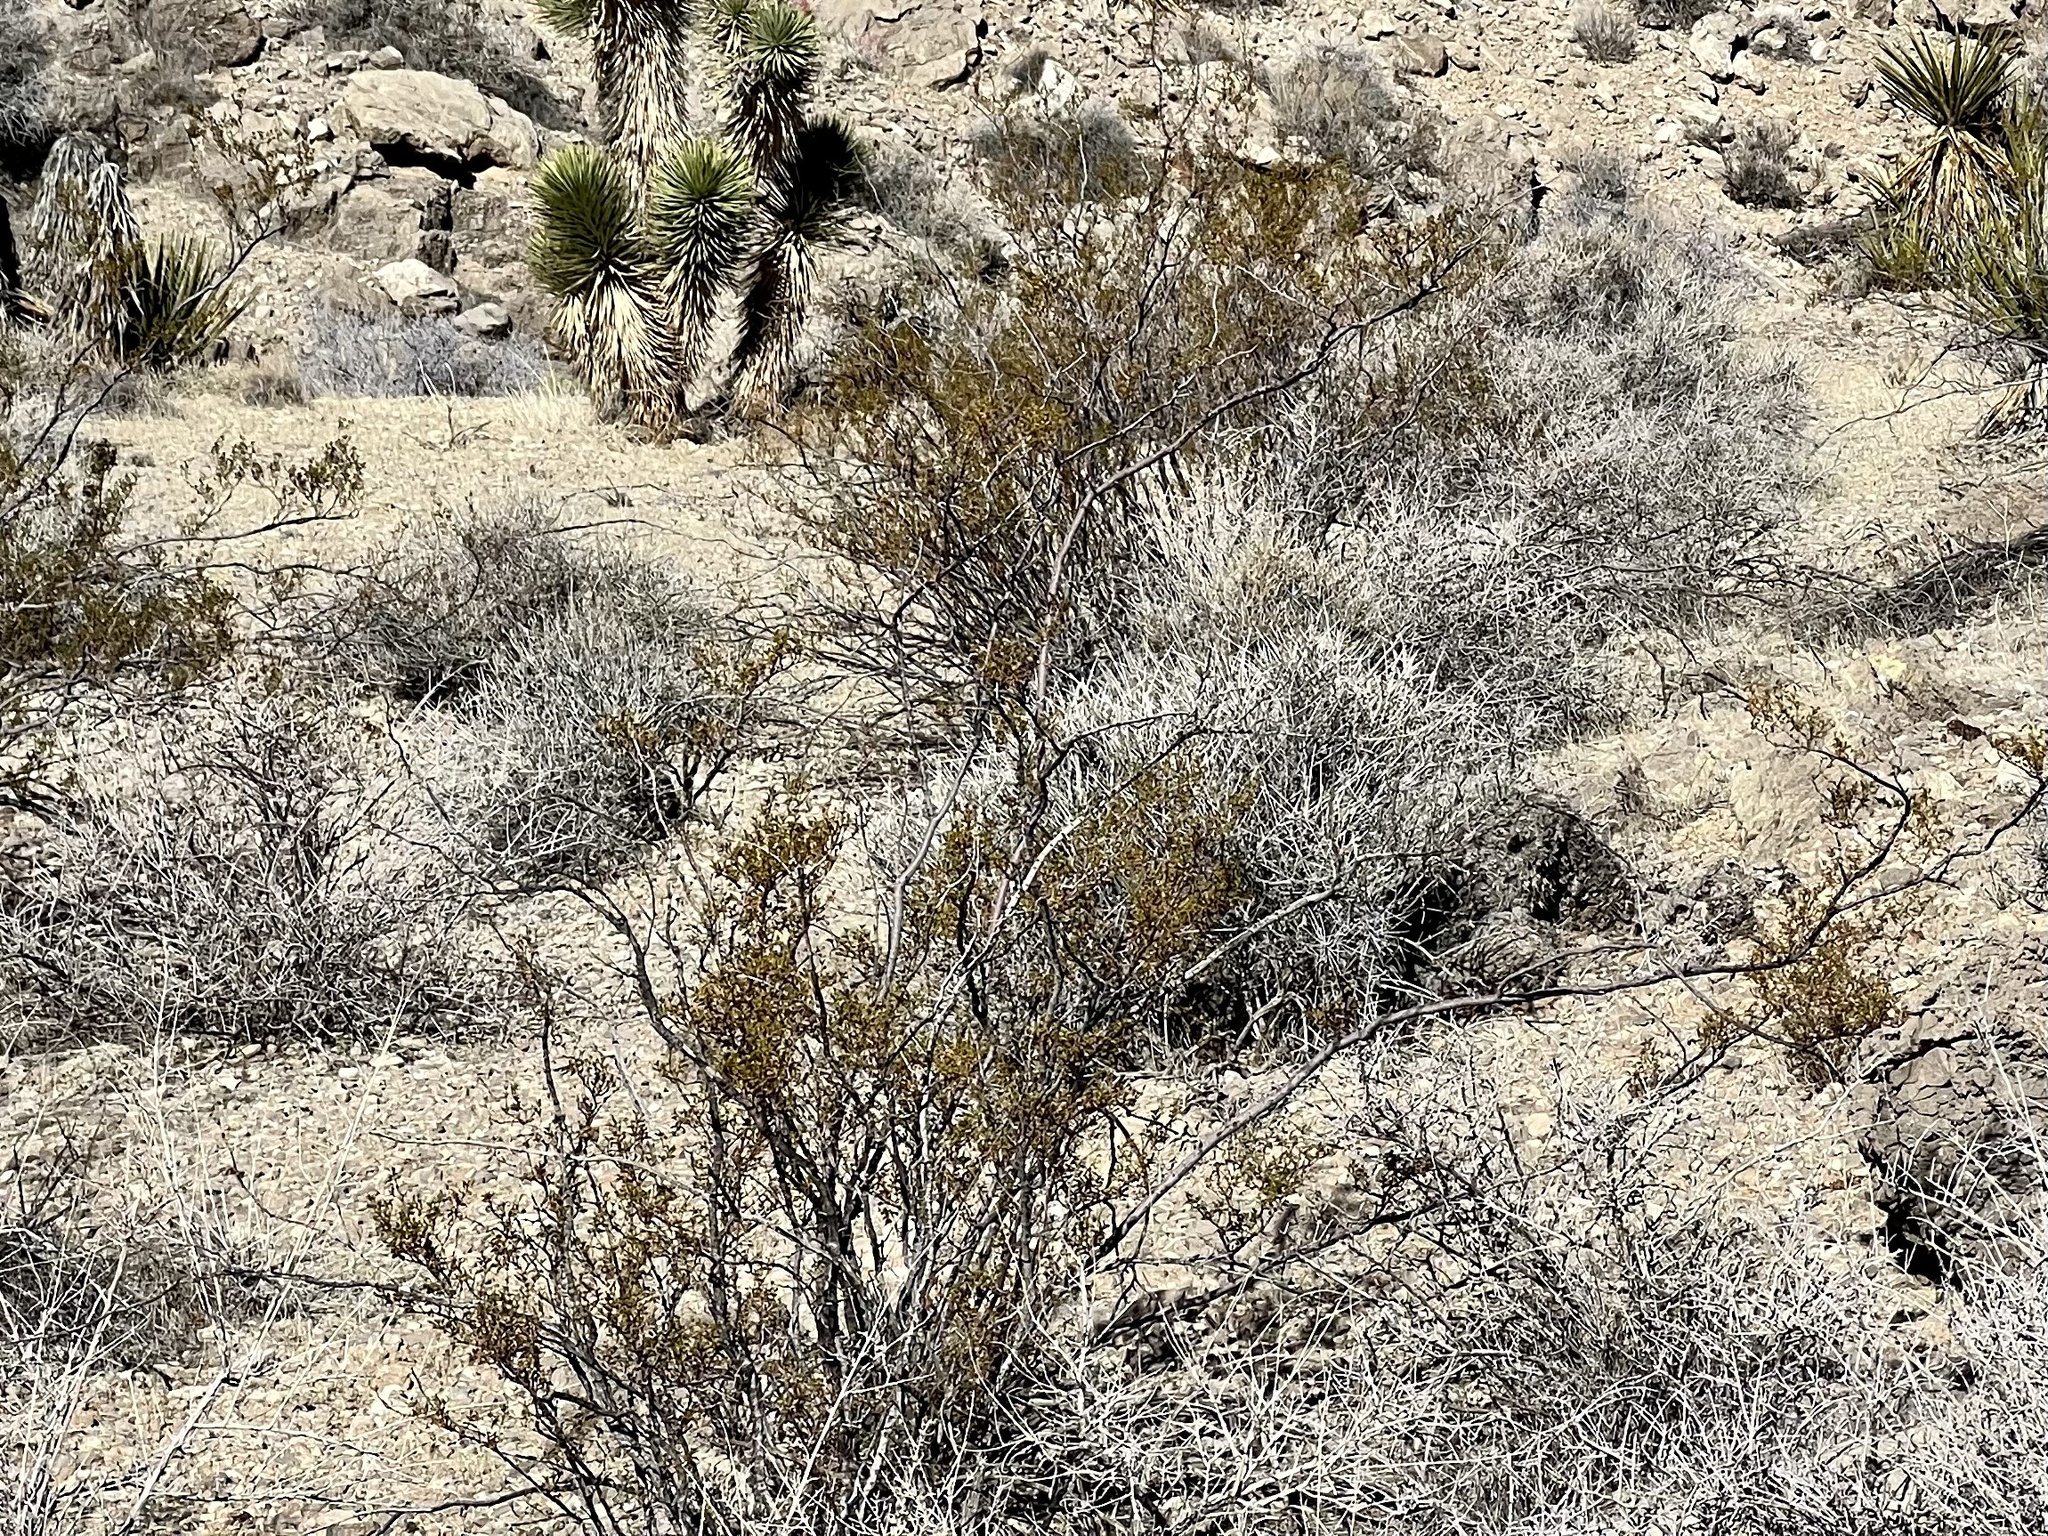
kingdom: Plantae
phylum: Tracheophyta
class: Magnoliopsida
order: Zygophyllales
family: Zygophyllaceae
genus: Larrea
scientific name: Larrea tridentata
